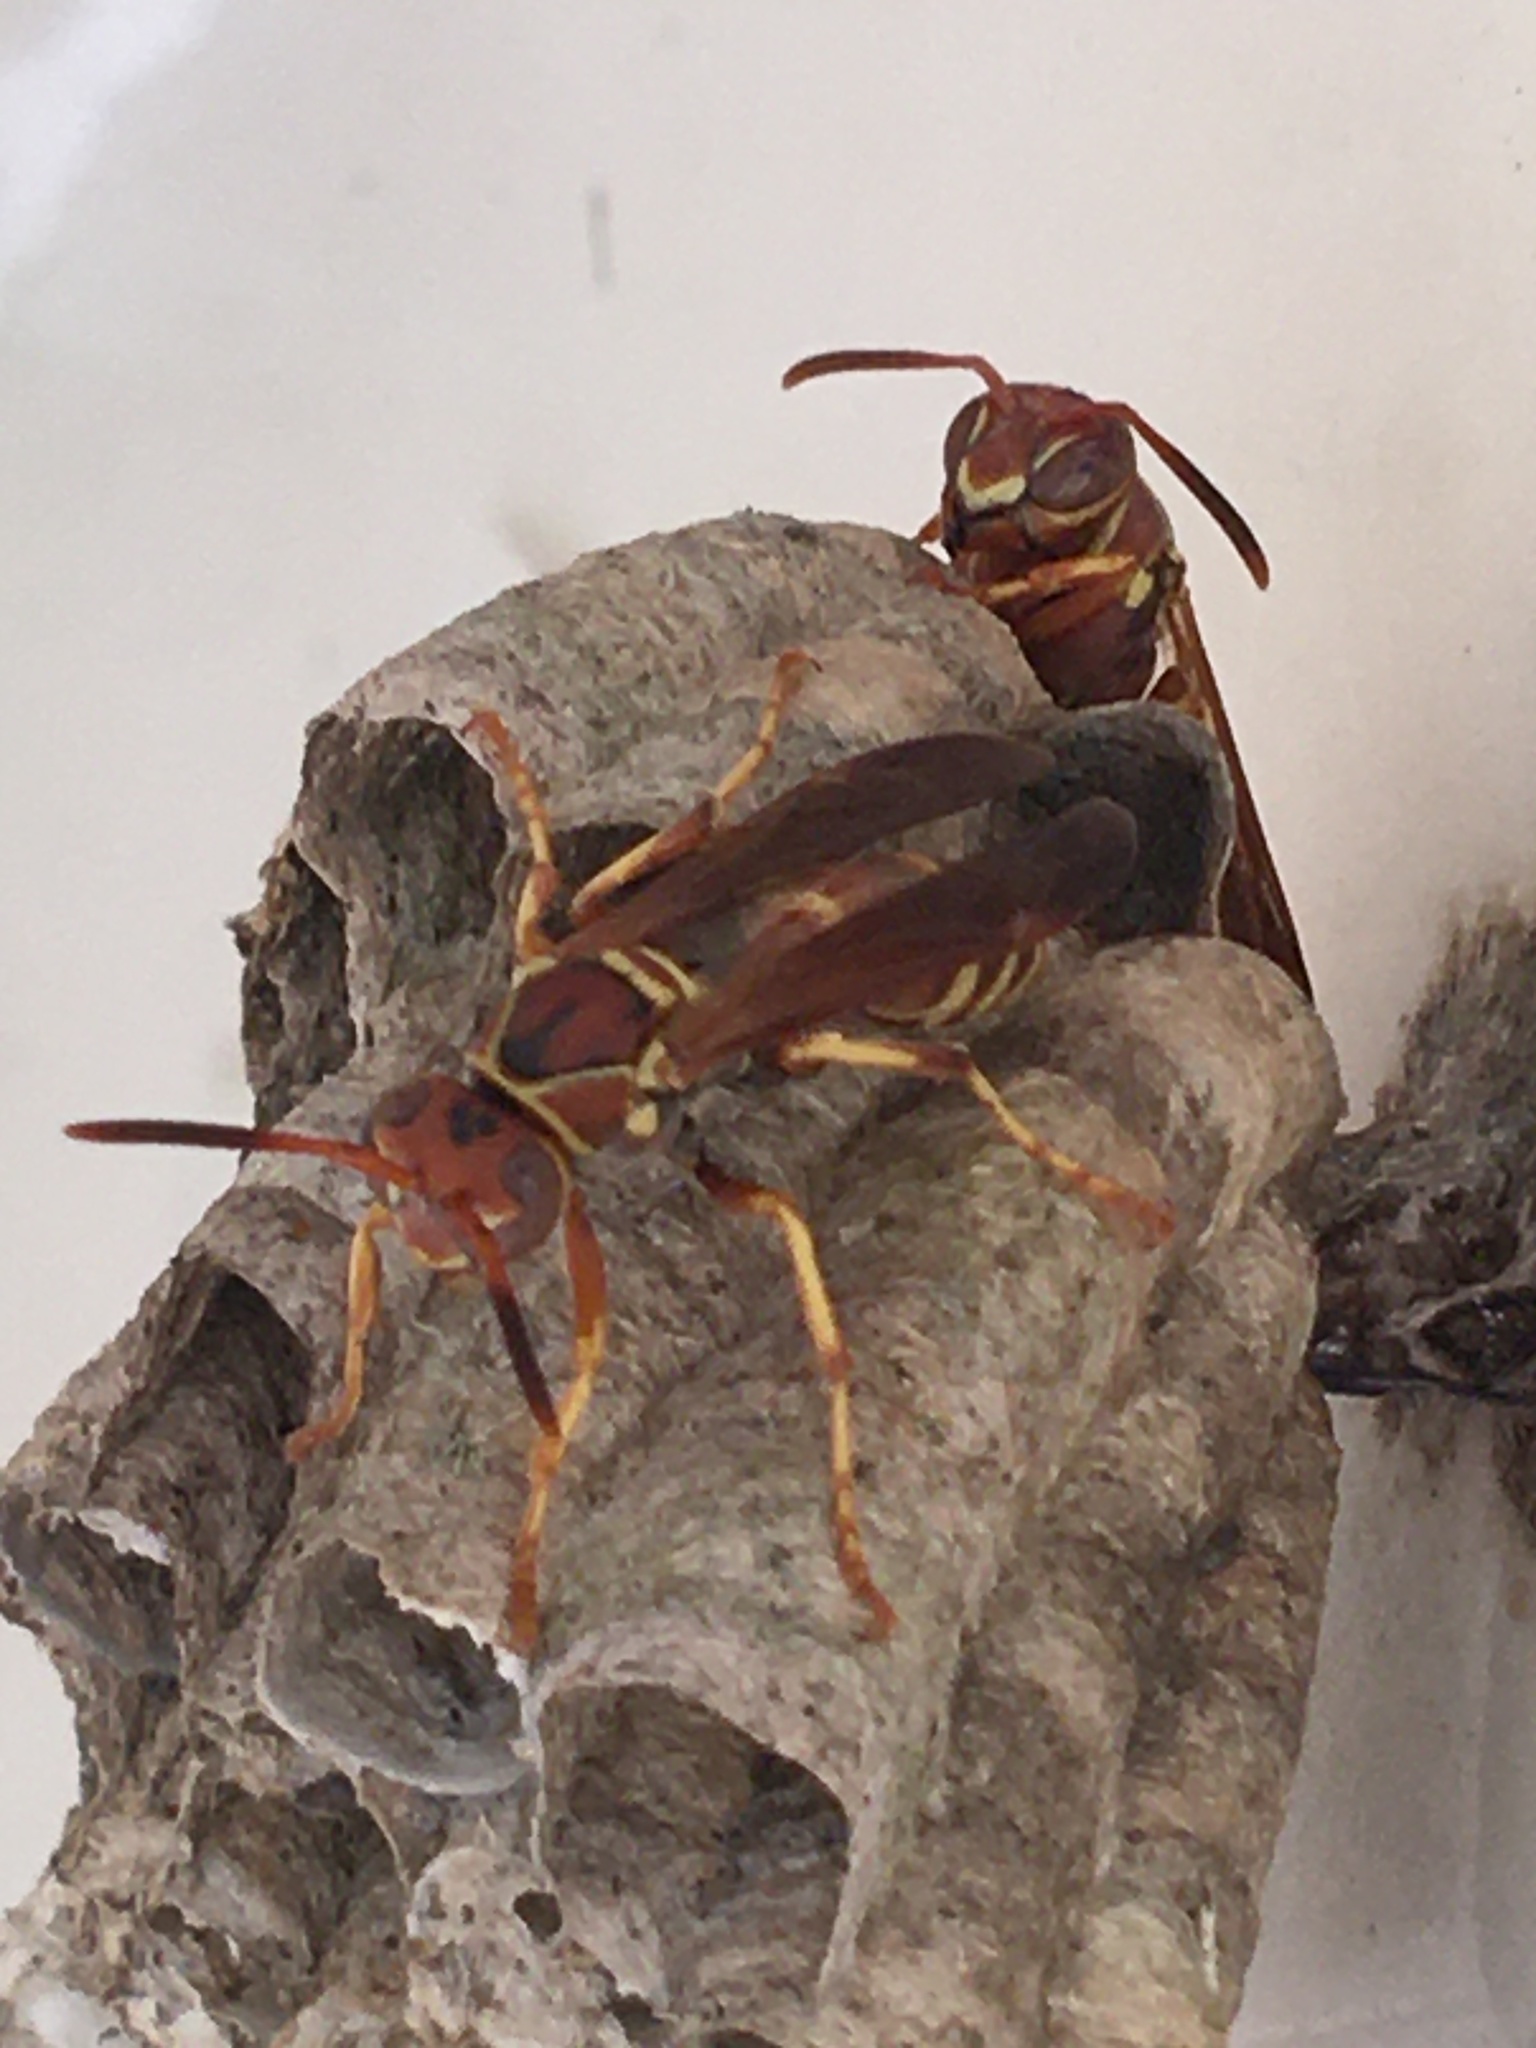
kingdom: Animalia
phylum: Arthropoda
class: Insecta
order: Hymenoptera
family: Eumenidae
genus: Polistes
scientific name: Polistes dorsalis
